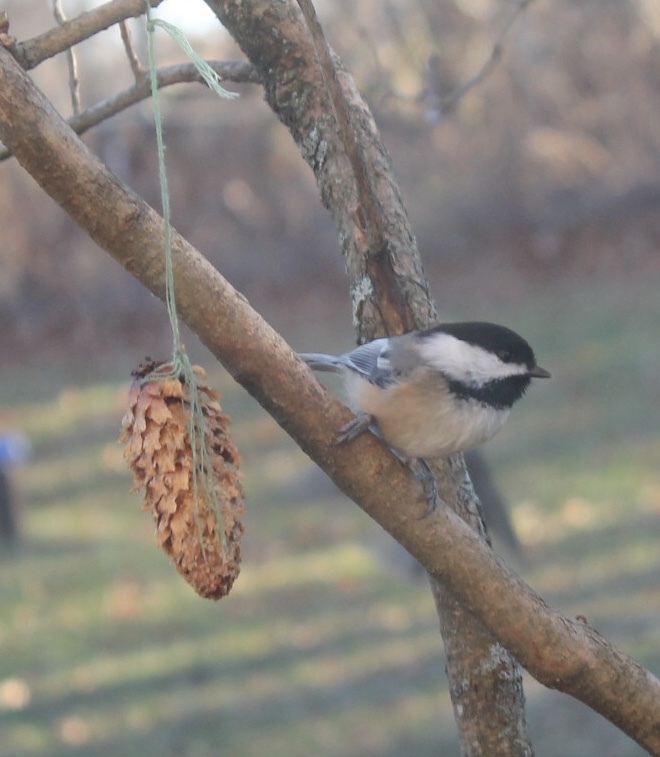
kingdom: Animalia
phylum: Chordata
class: Aves
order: Passeriformes
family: Paridae
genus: Poecile
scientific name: Poecile atricapillus
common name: Black-capped chickadee
